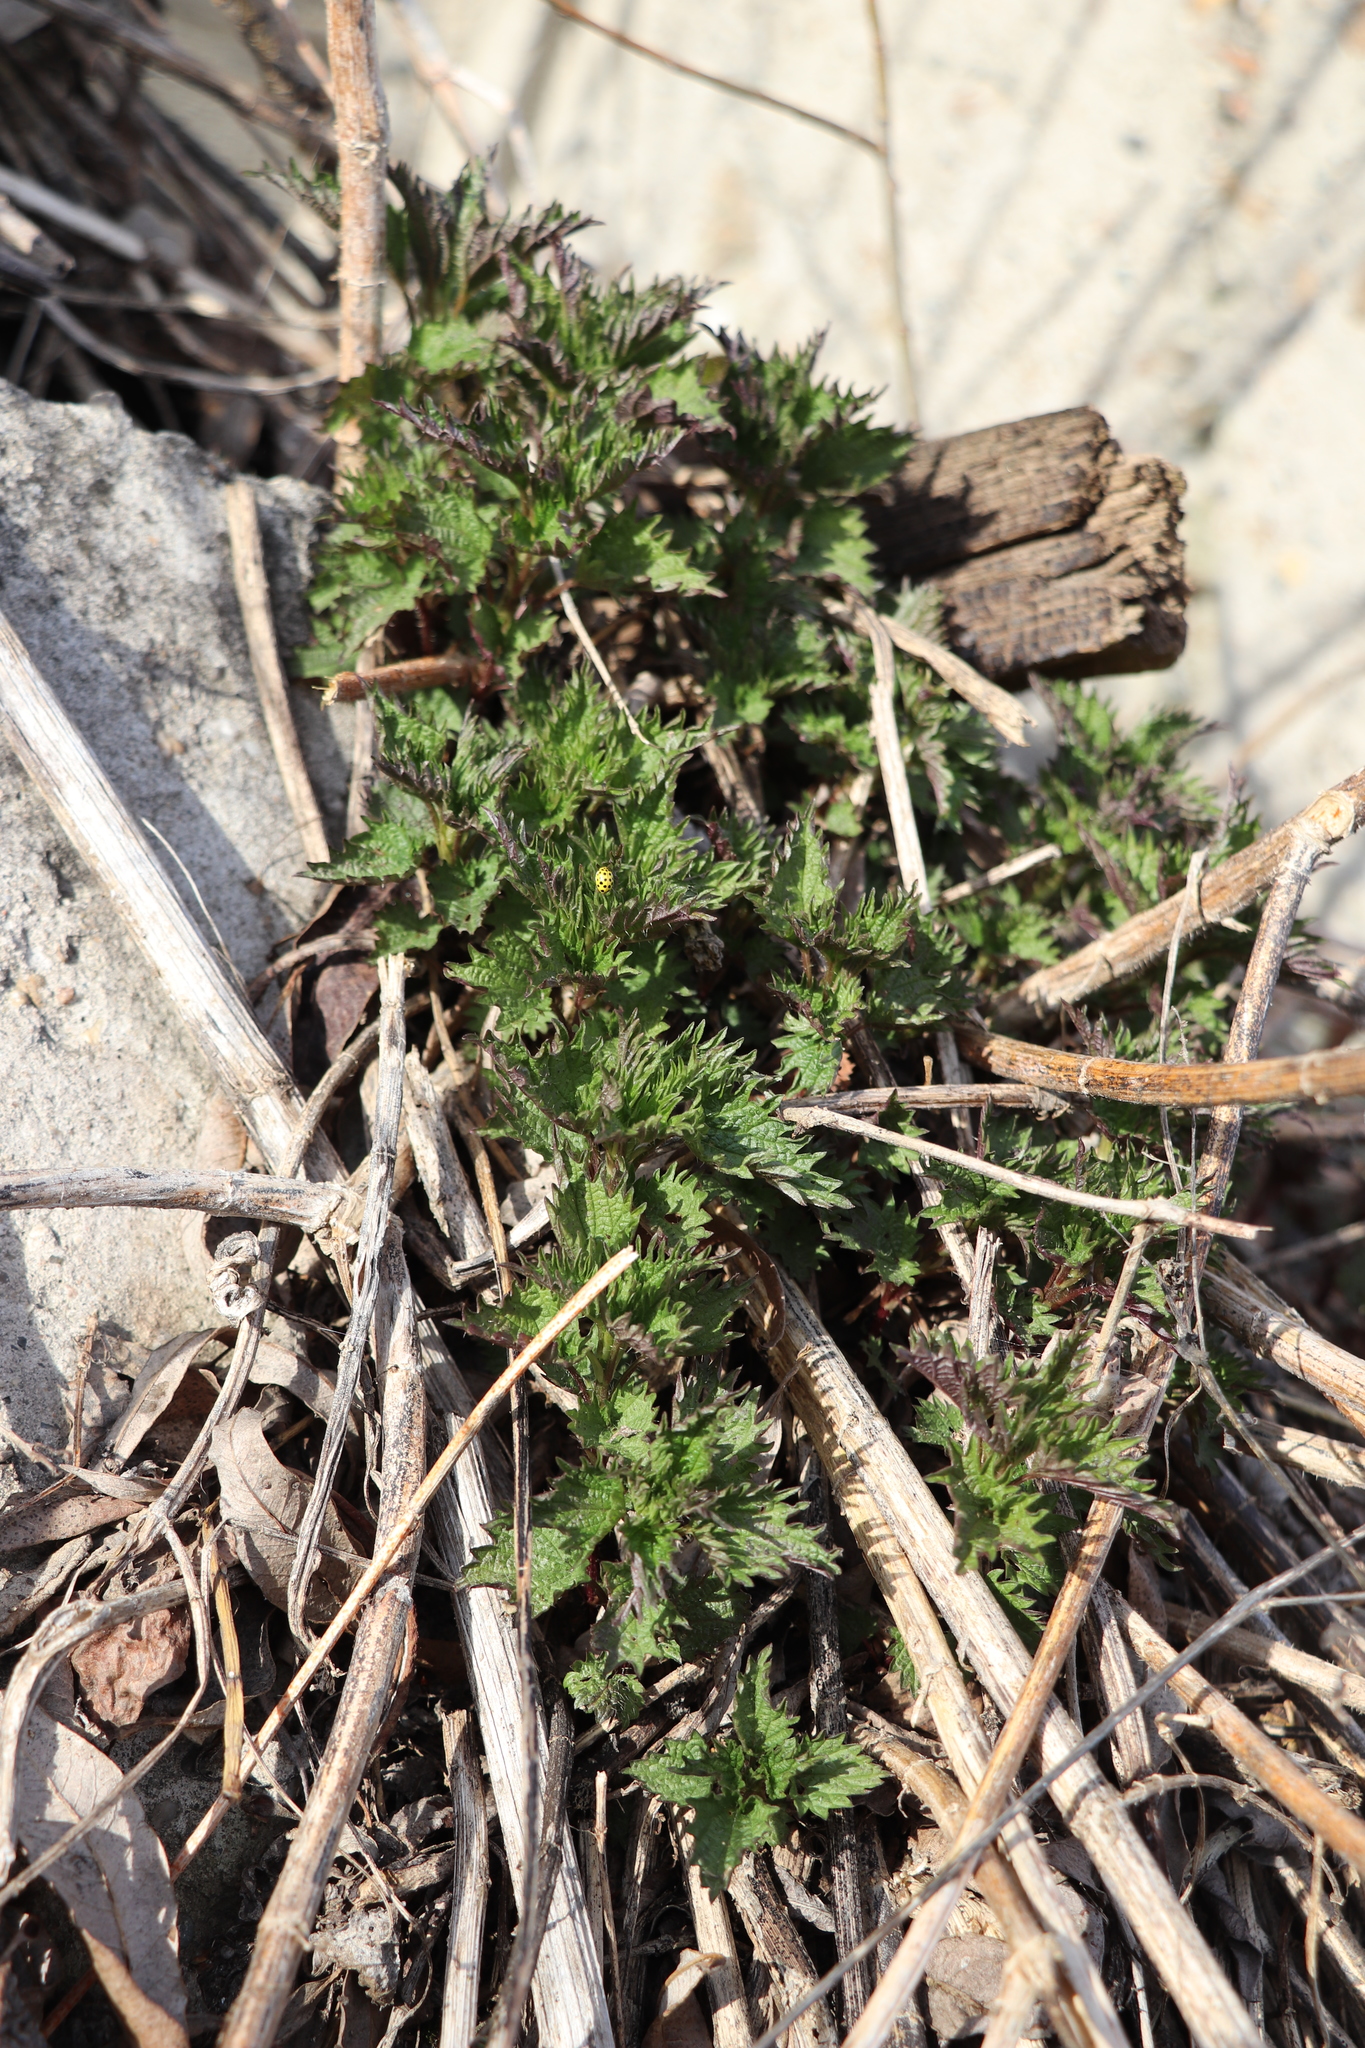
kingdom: Plantae
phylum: Tracheophyta
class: Magnoliopsida
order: Rosales
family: Urticaceae
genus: Urtica
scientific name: Urtica dioica
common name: Common nettle
